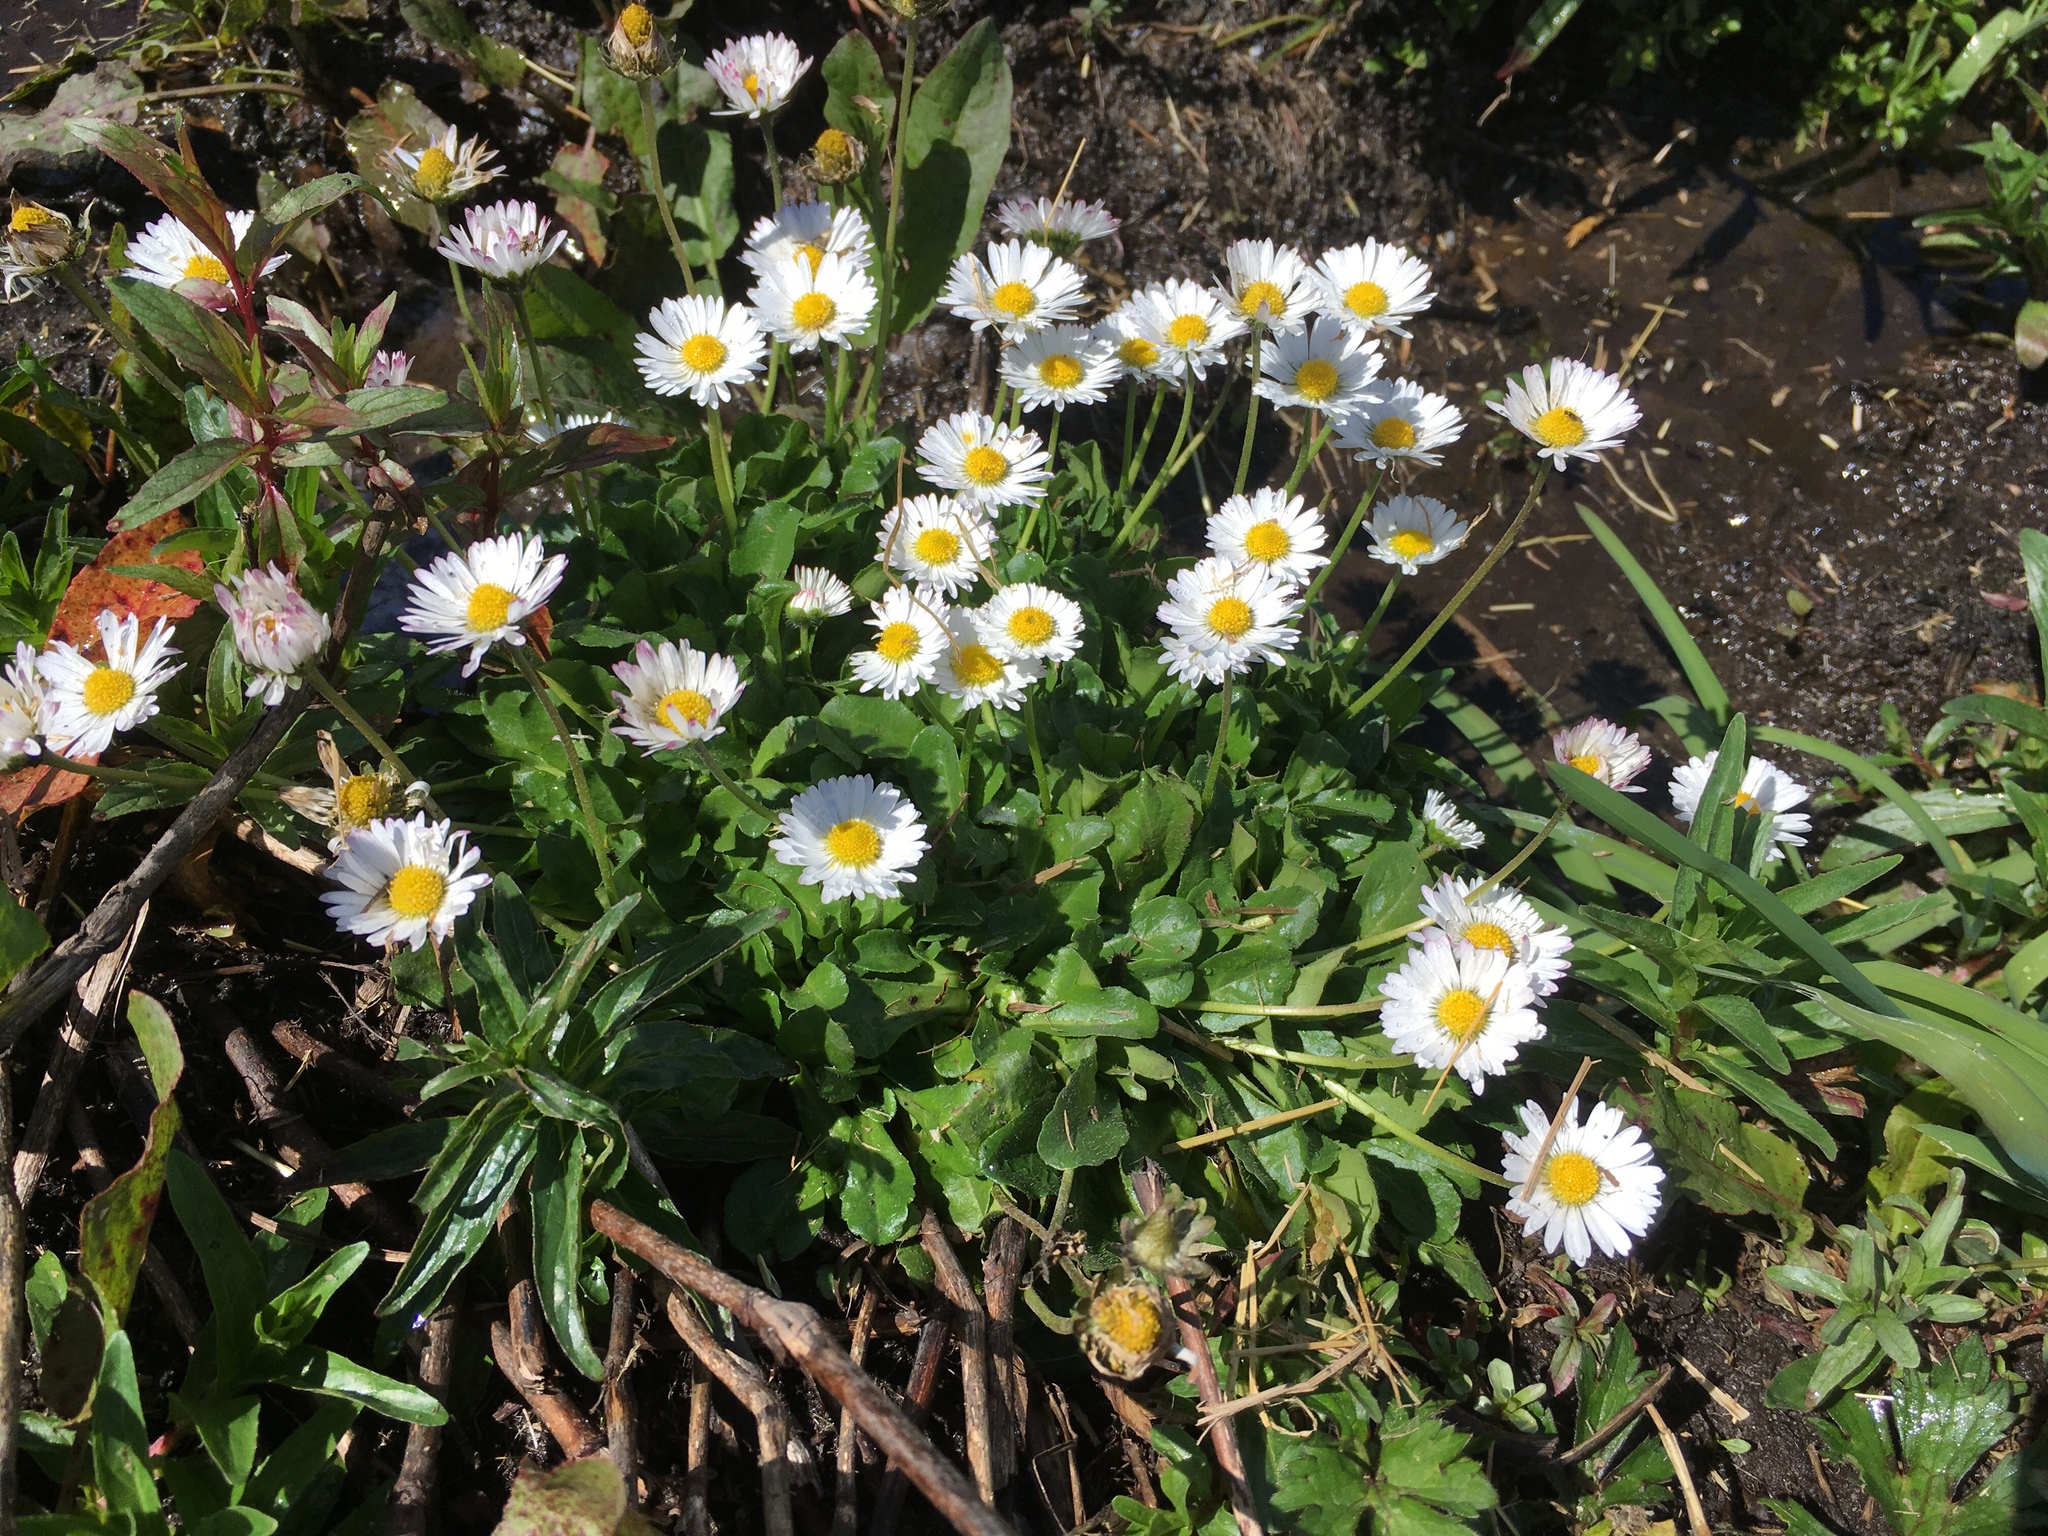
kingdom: Plantae
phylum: Tracheophyta
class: Magnoliopsida
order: Asterales
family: Asteraceae
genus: Bellis
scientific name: Bellis perennis
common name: Lawndaisy
